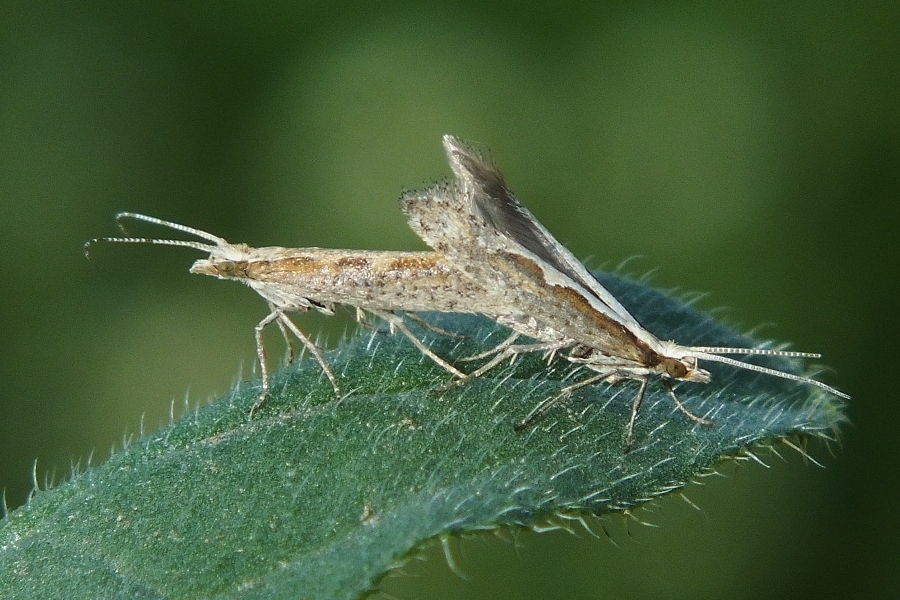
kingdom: Animalia
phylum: Arthropoda
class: Insecta
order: Lepidoptera
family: Plutellidae
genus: Plutella
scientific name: Plutella xylostella
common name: Diamond-back moth
